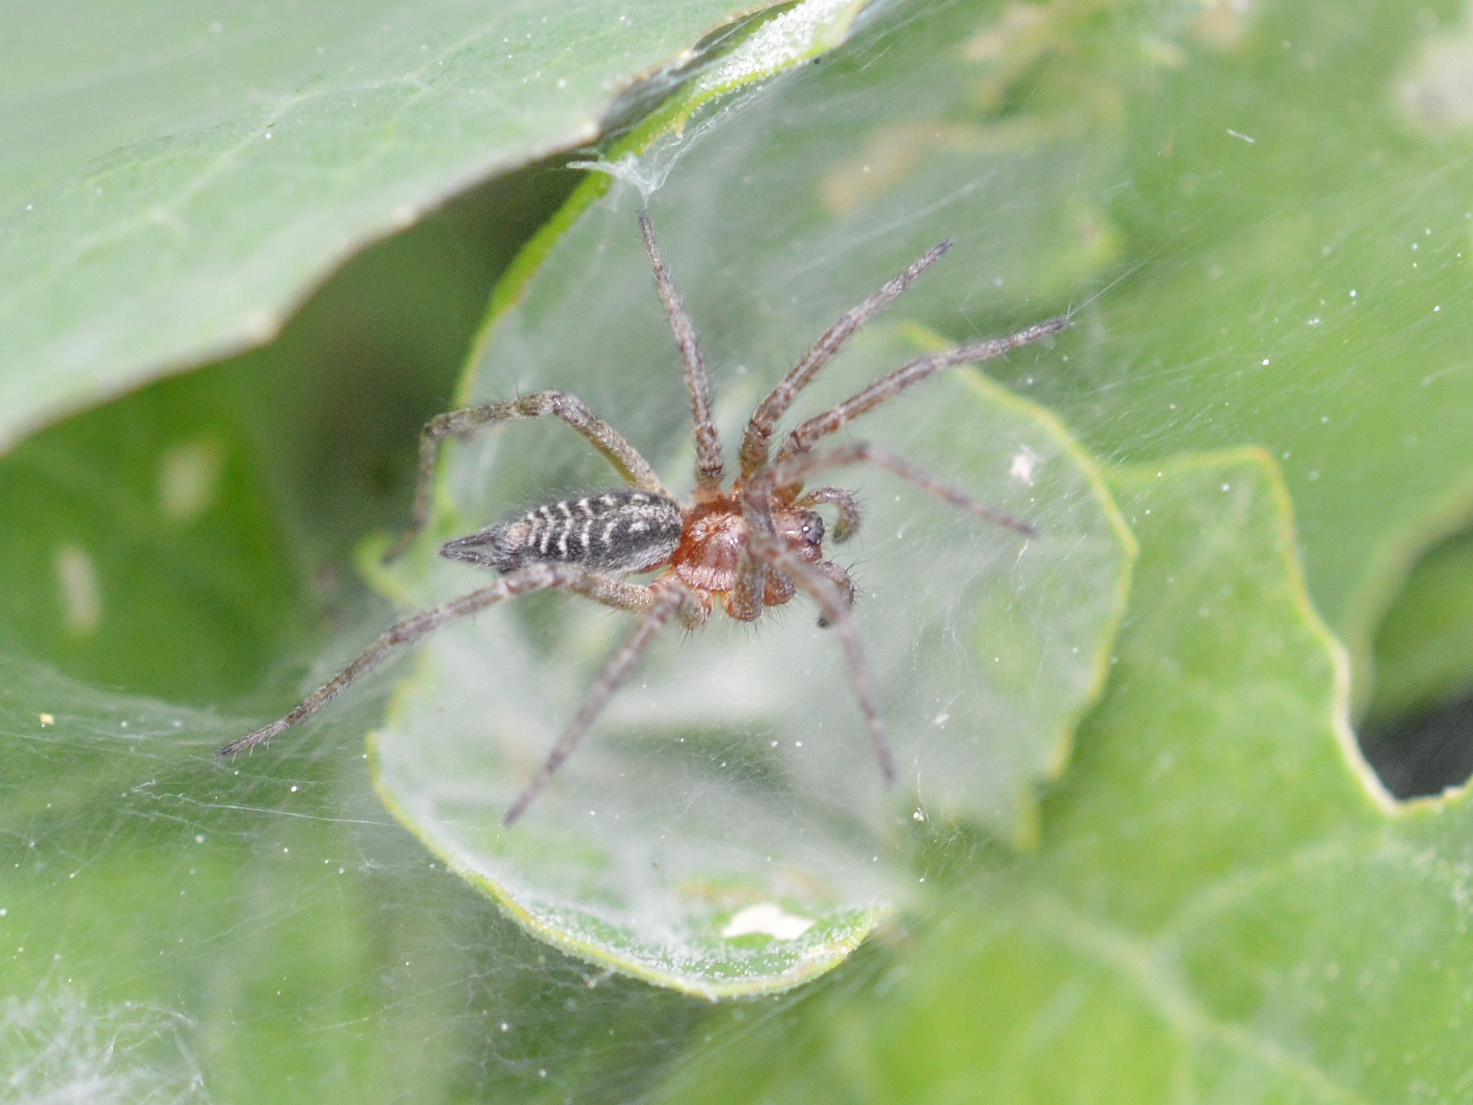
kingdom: Animalia
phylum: Arthropoda
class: Arachnida
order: Araneae
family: Agelenidae
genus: Agelena
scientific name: Agelena labyrinthica
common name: Labyrinth spider
